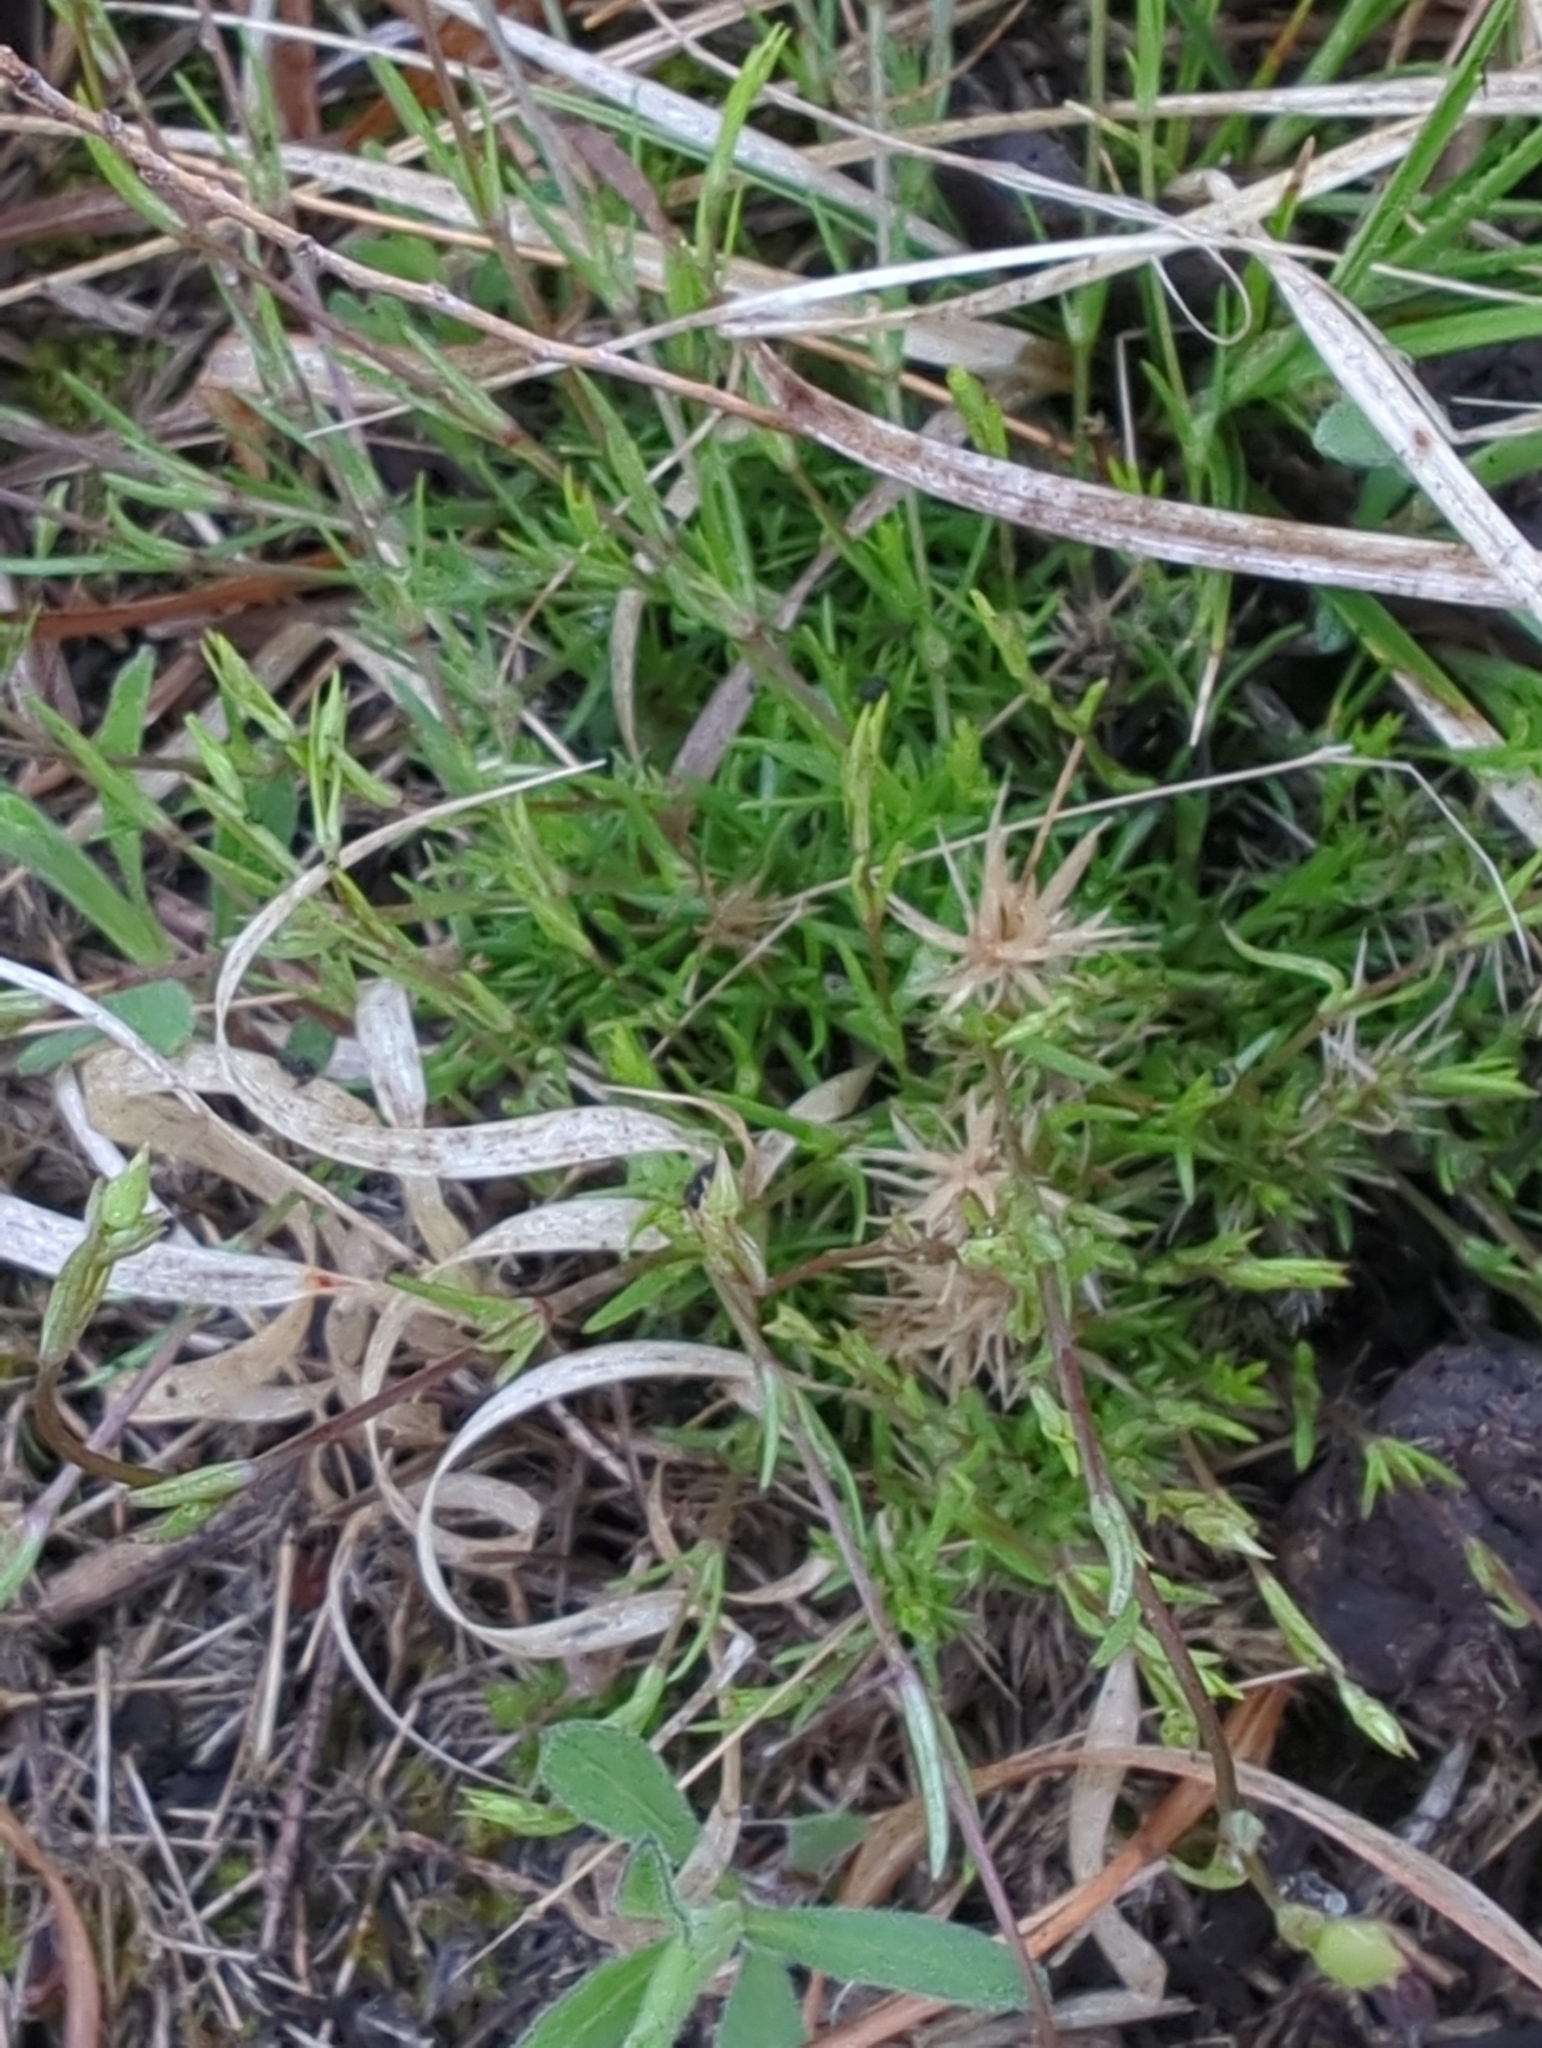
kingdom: Plantae
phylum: Tracheophyta
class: Magnoliopsida
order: Caryophyllales
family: Caryophyllaceae
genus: Sabulina
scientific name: Sabulina michauxii
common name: Michaux's stitchwort
